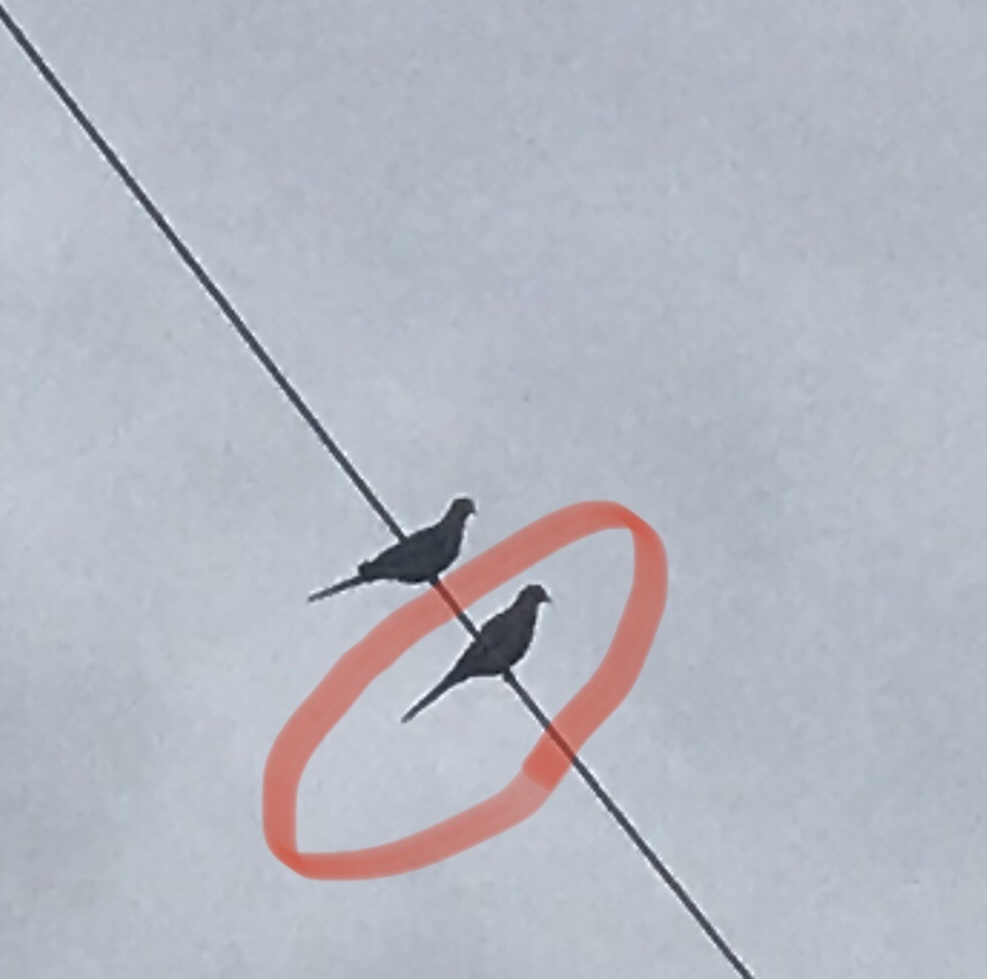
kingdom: Animalia
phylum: Chordata
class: Aves
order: Columbiformes
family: Columbidae
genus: Zenaida
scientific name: Zenaida macroura
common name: Mourning dove
